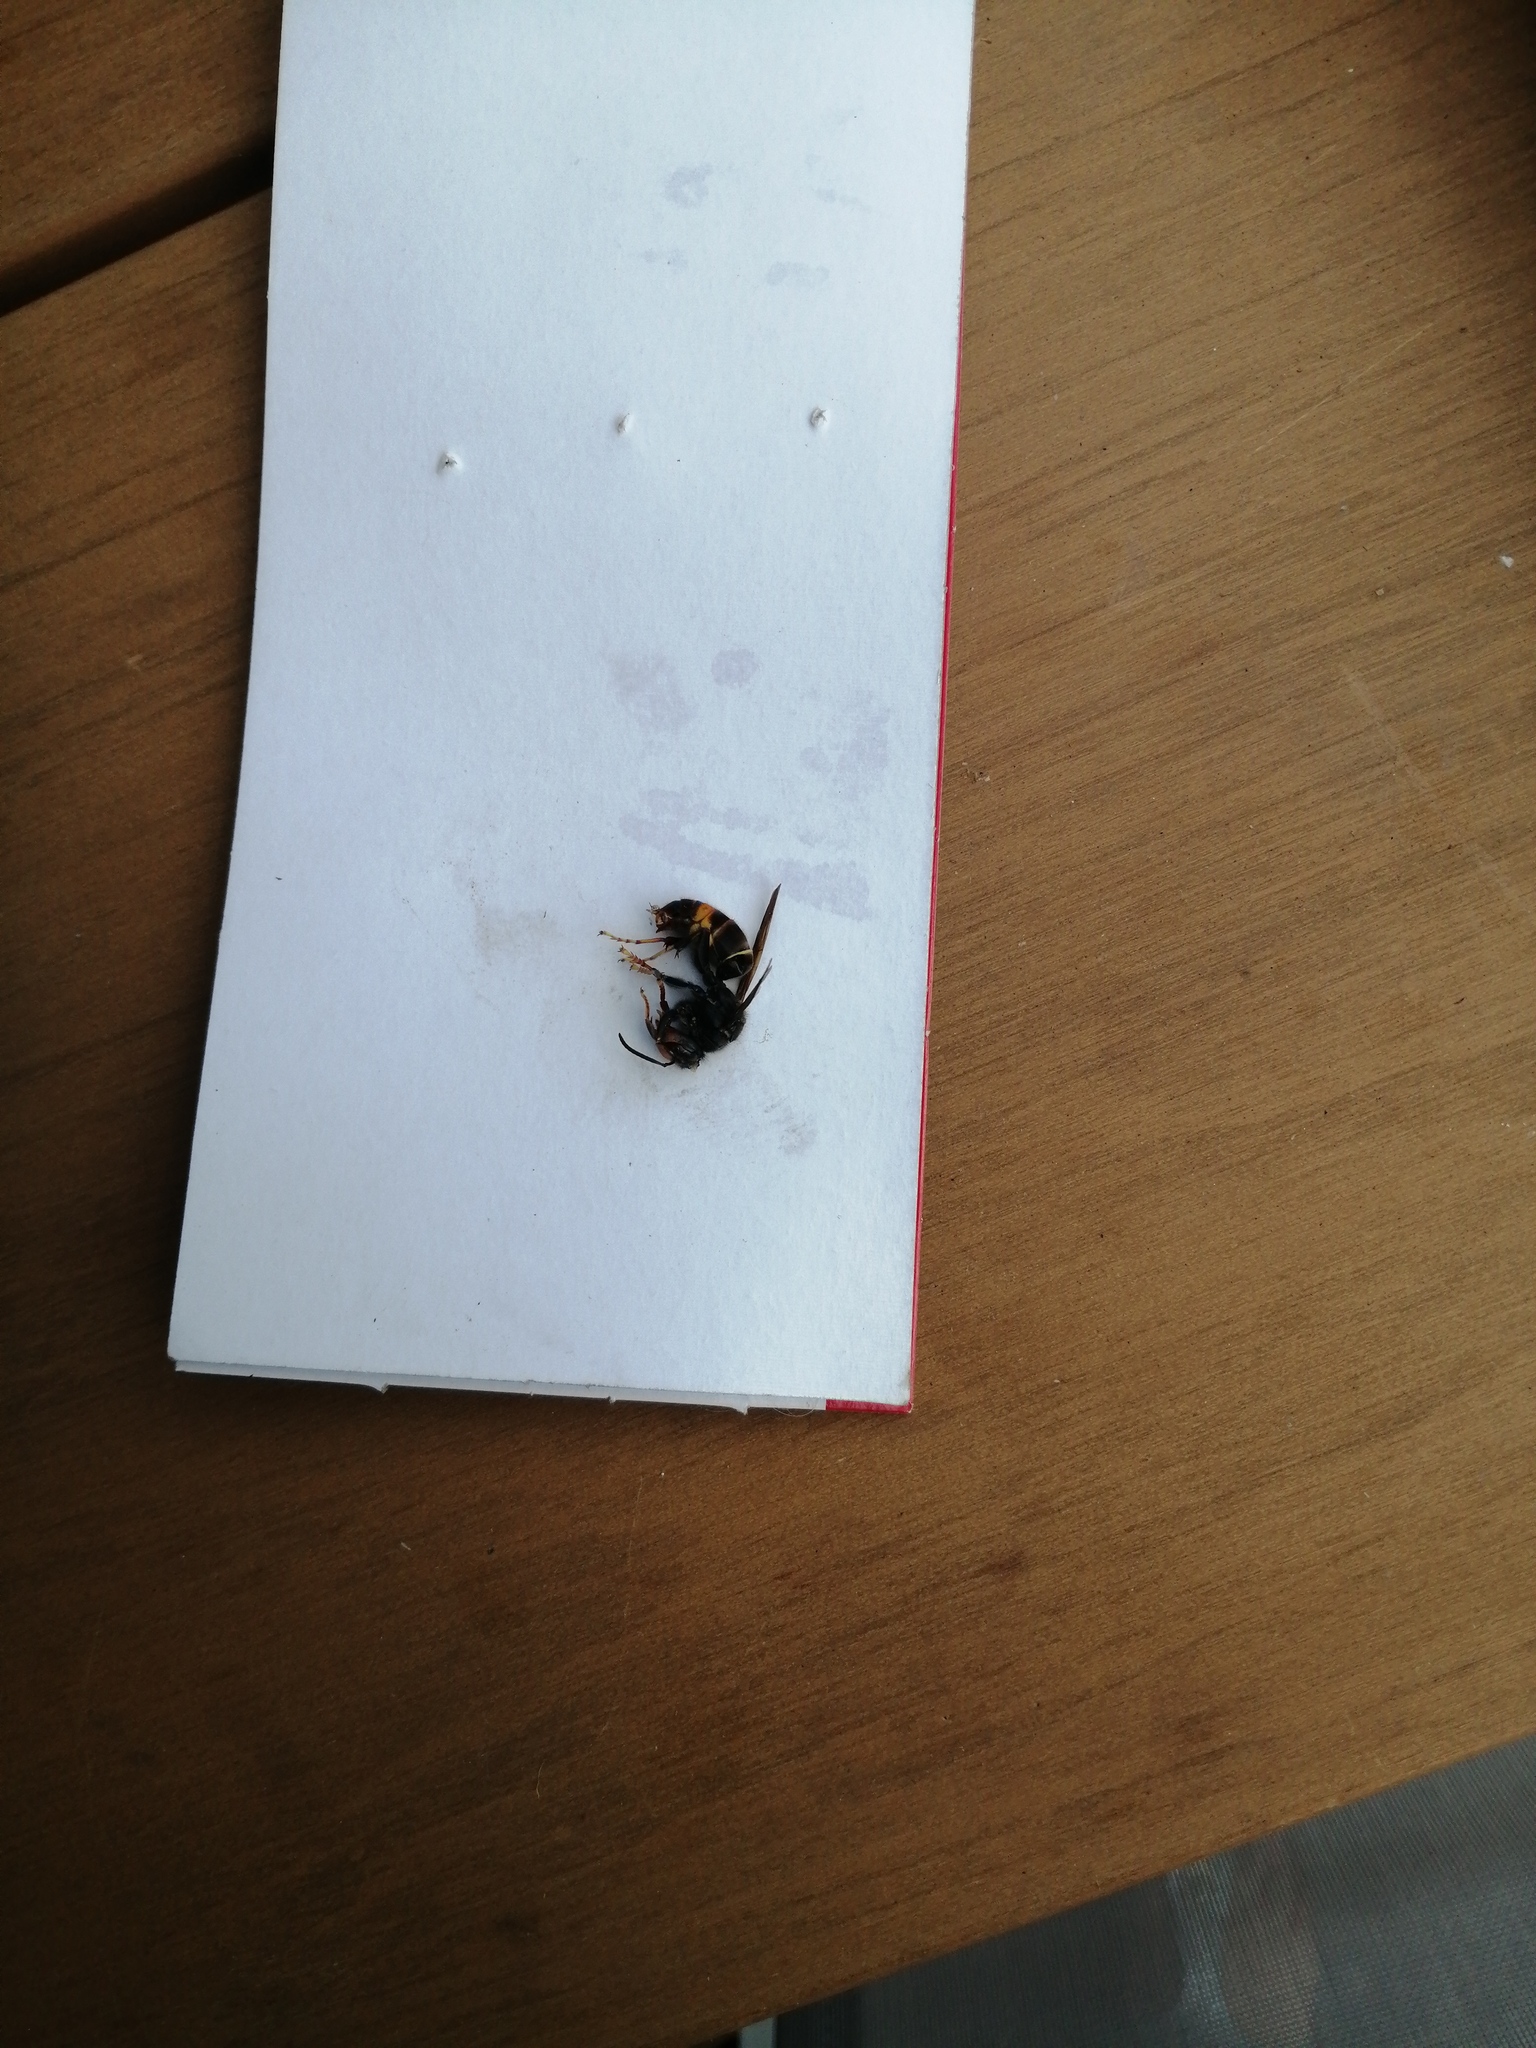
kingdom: Animalia
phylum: Arthropoda
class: Insecta
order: Hymenoptera
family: Vespidae
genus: Vespa
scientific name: Vespa velutina
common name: Asian hornet
